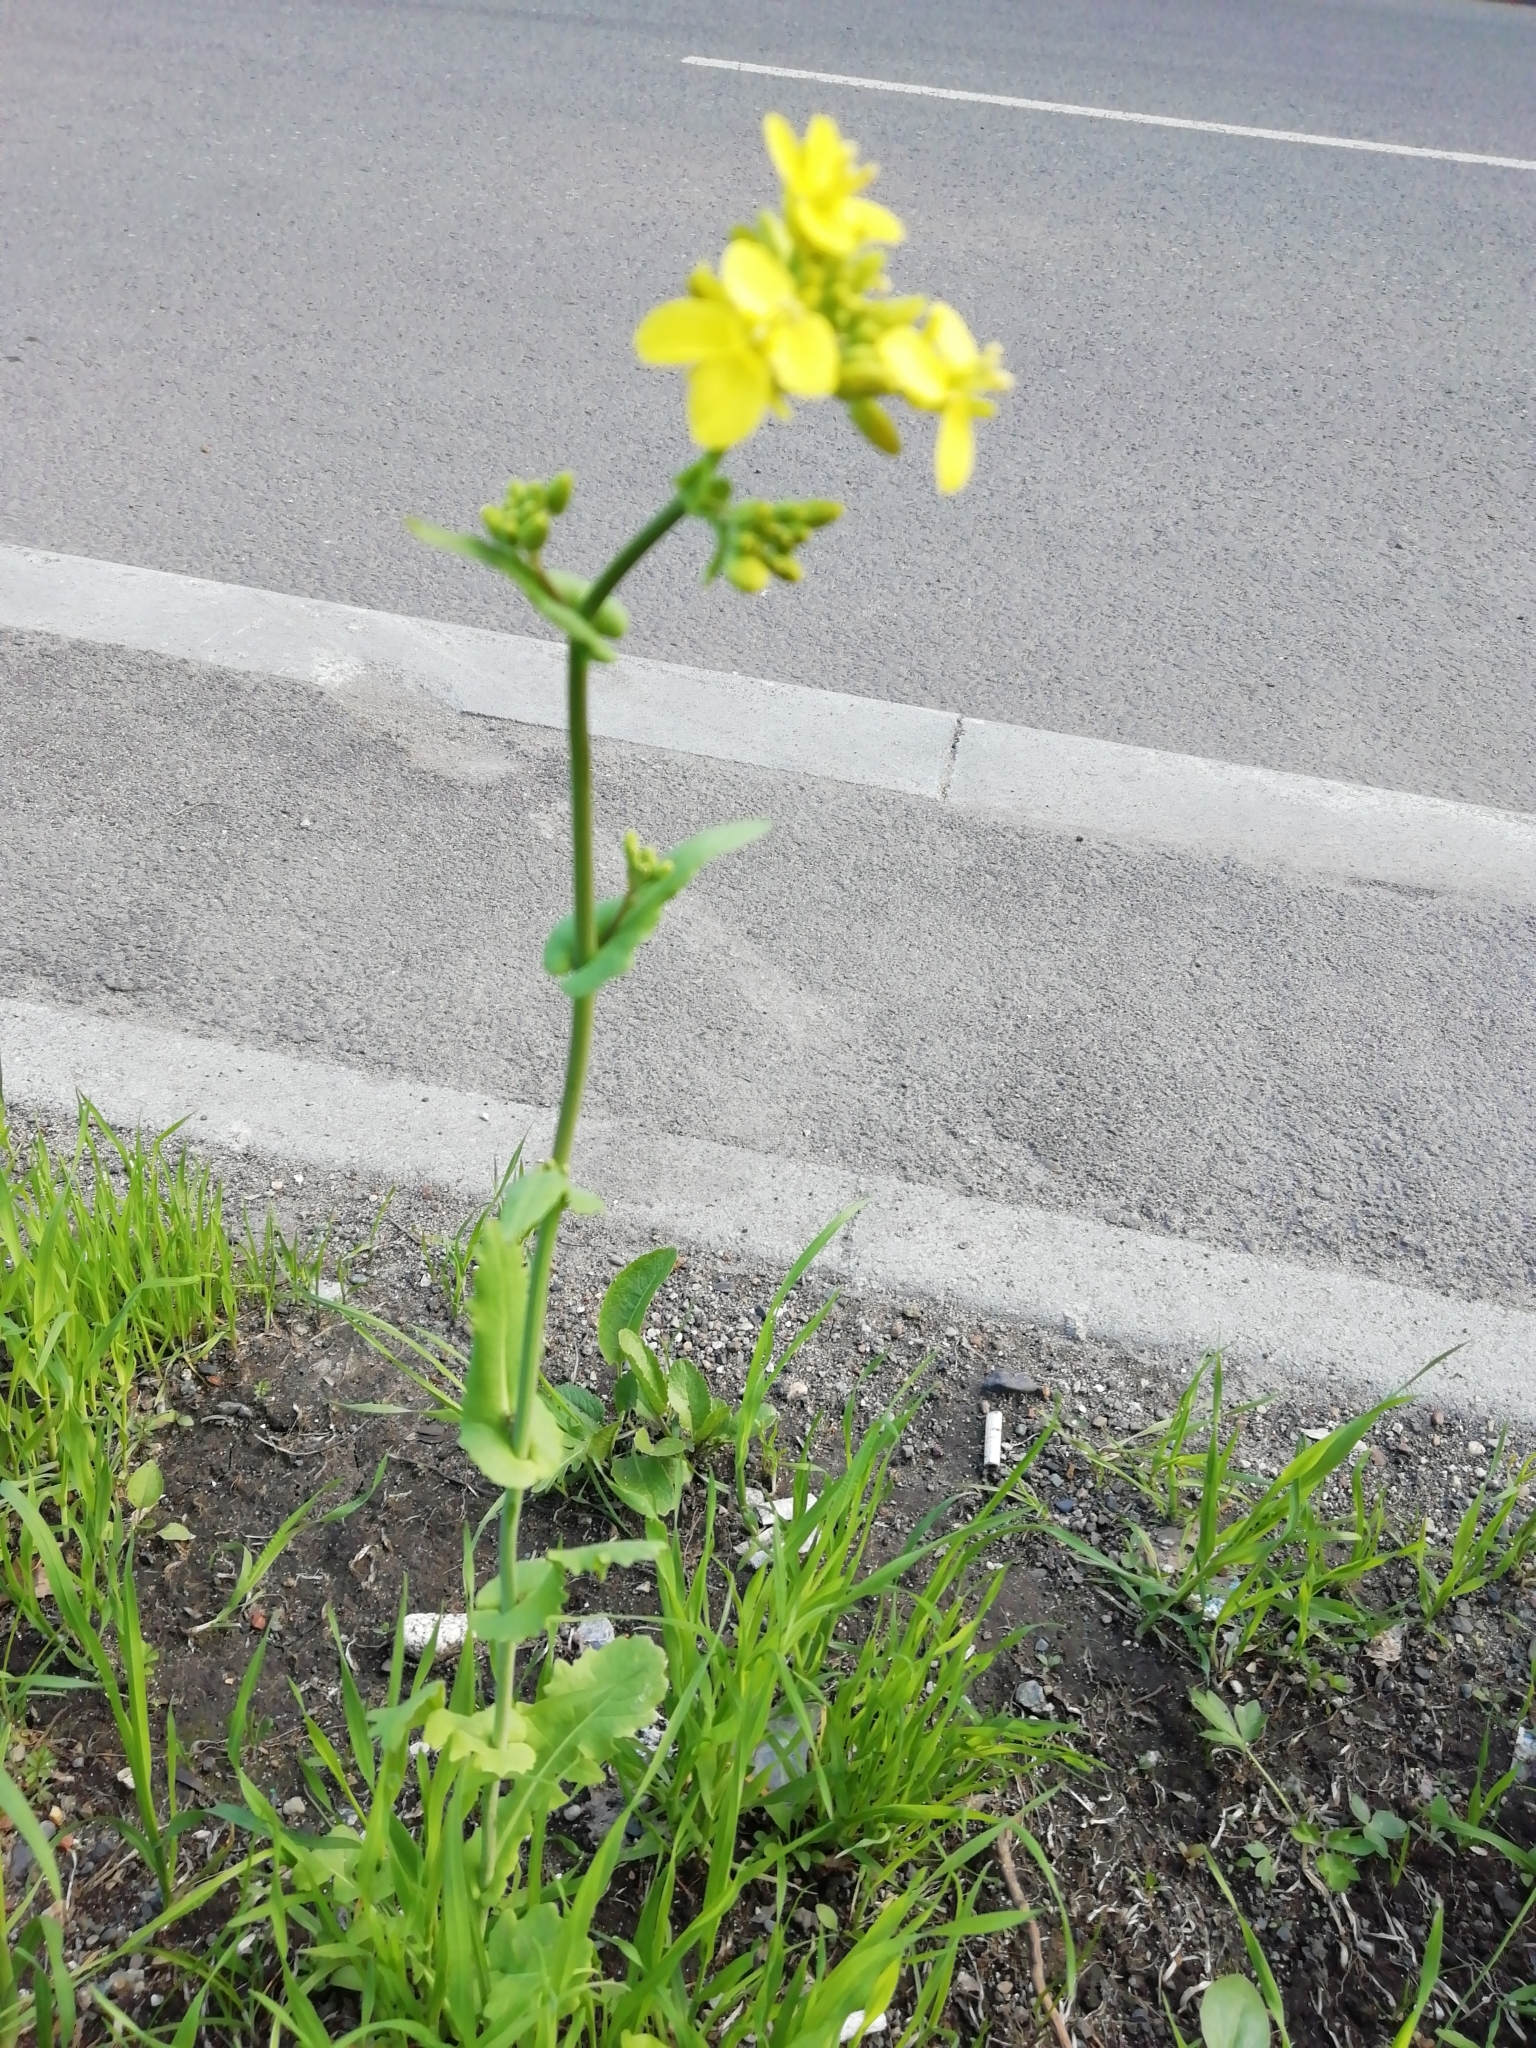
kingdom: Plantae
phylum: Tracheophyta
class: Magnoliopsida
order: Brassicales
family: Brassicaceae
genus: Brassica
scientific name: Brassica rapa
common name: Field mustard
